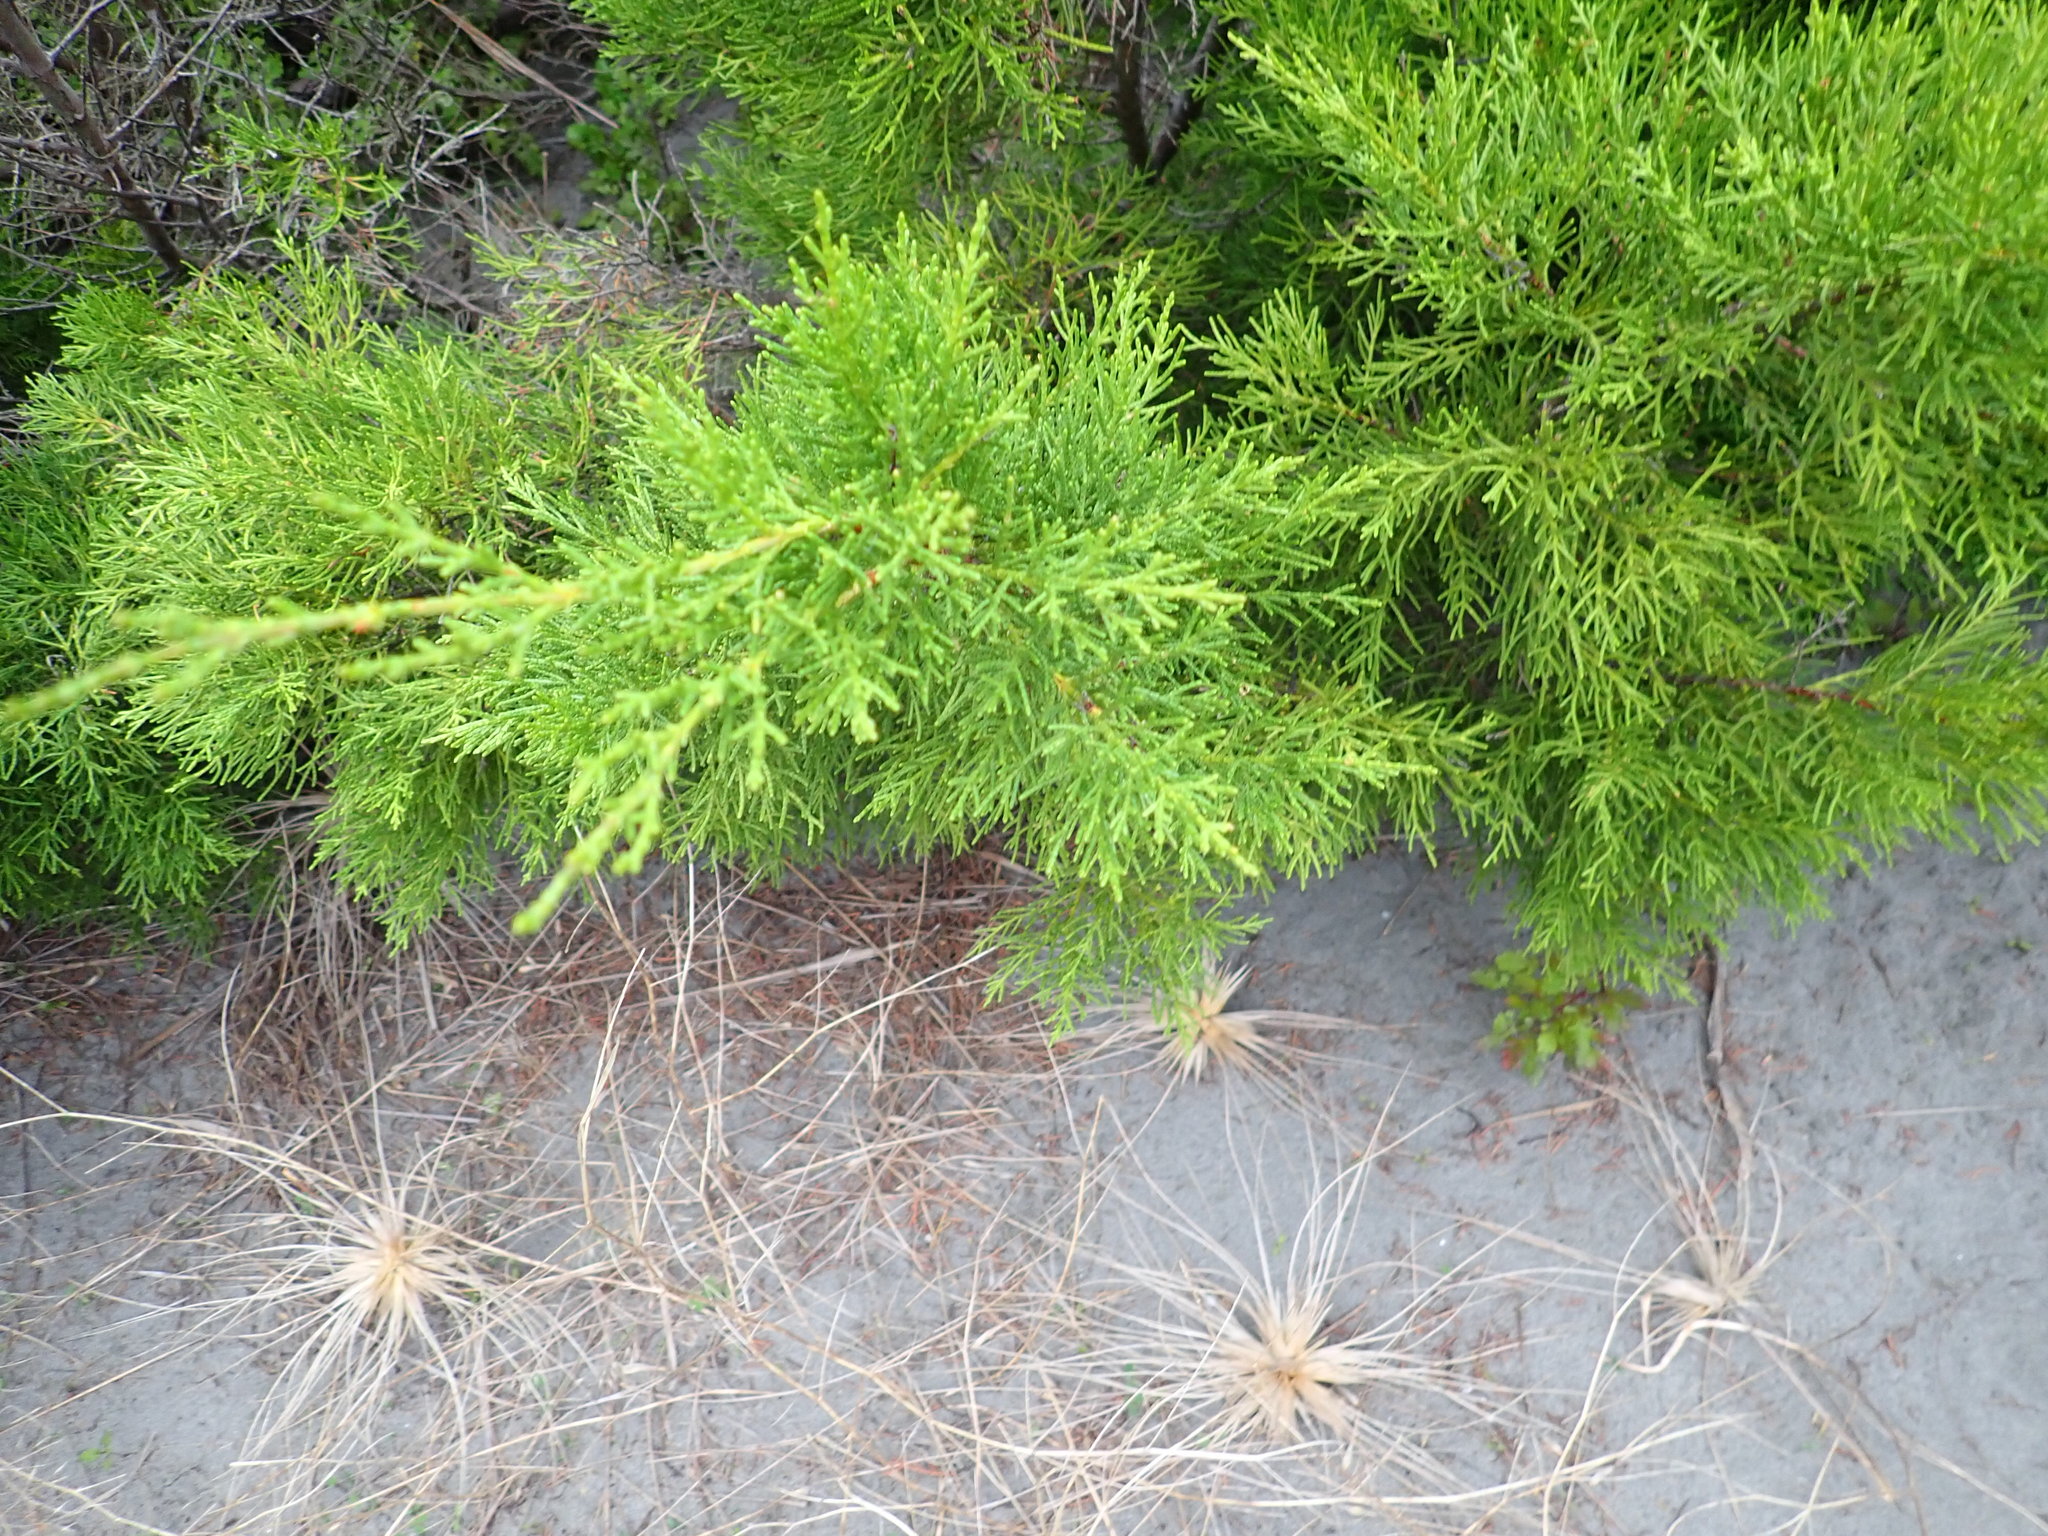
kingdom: Plantae
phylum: Tracheophyta
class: Pinopsida
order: Pinales
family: Cupressaceae
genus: Cupressus
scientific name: Cupressus macrocarpa
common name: Monterey cypress
